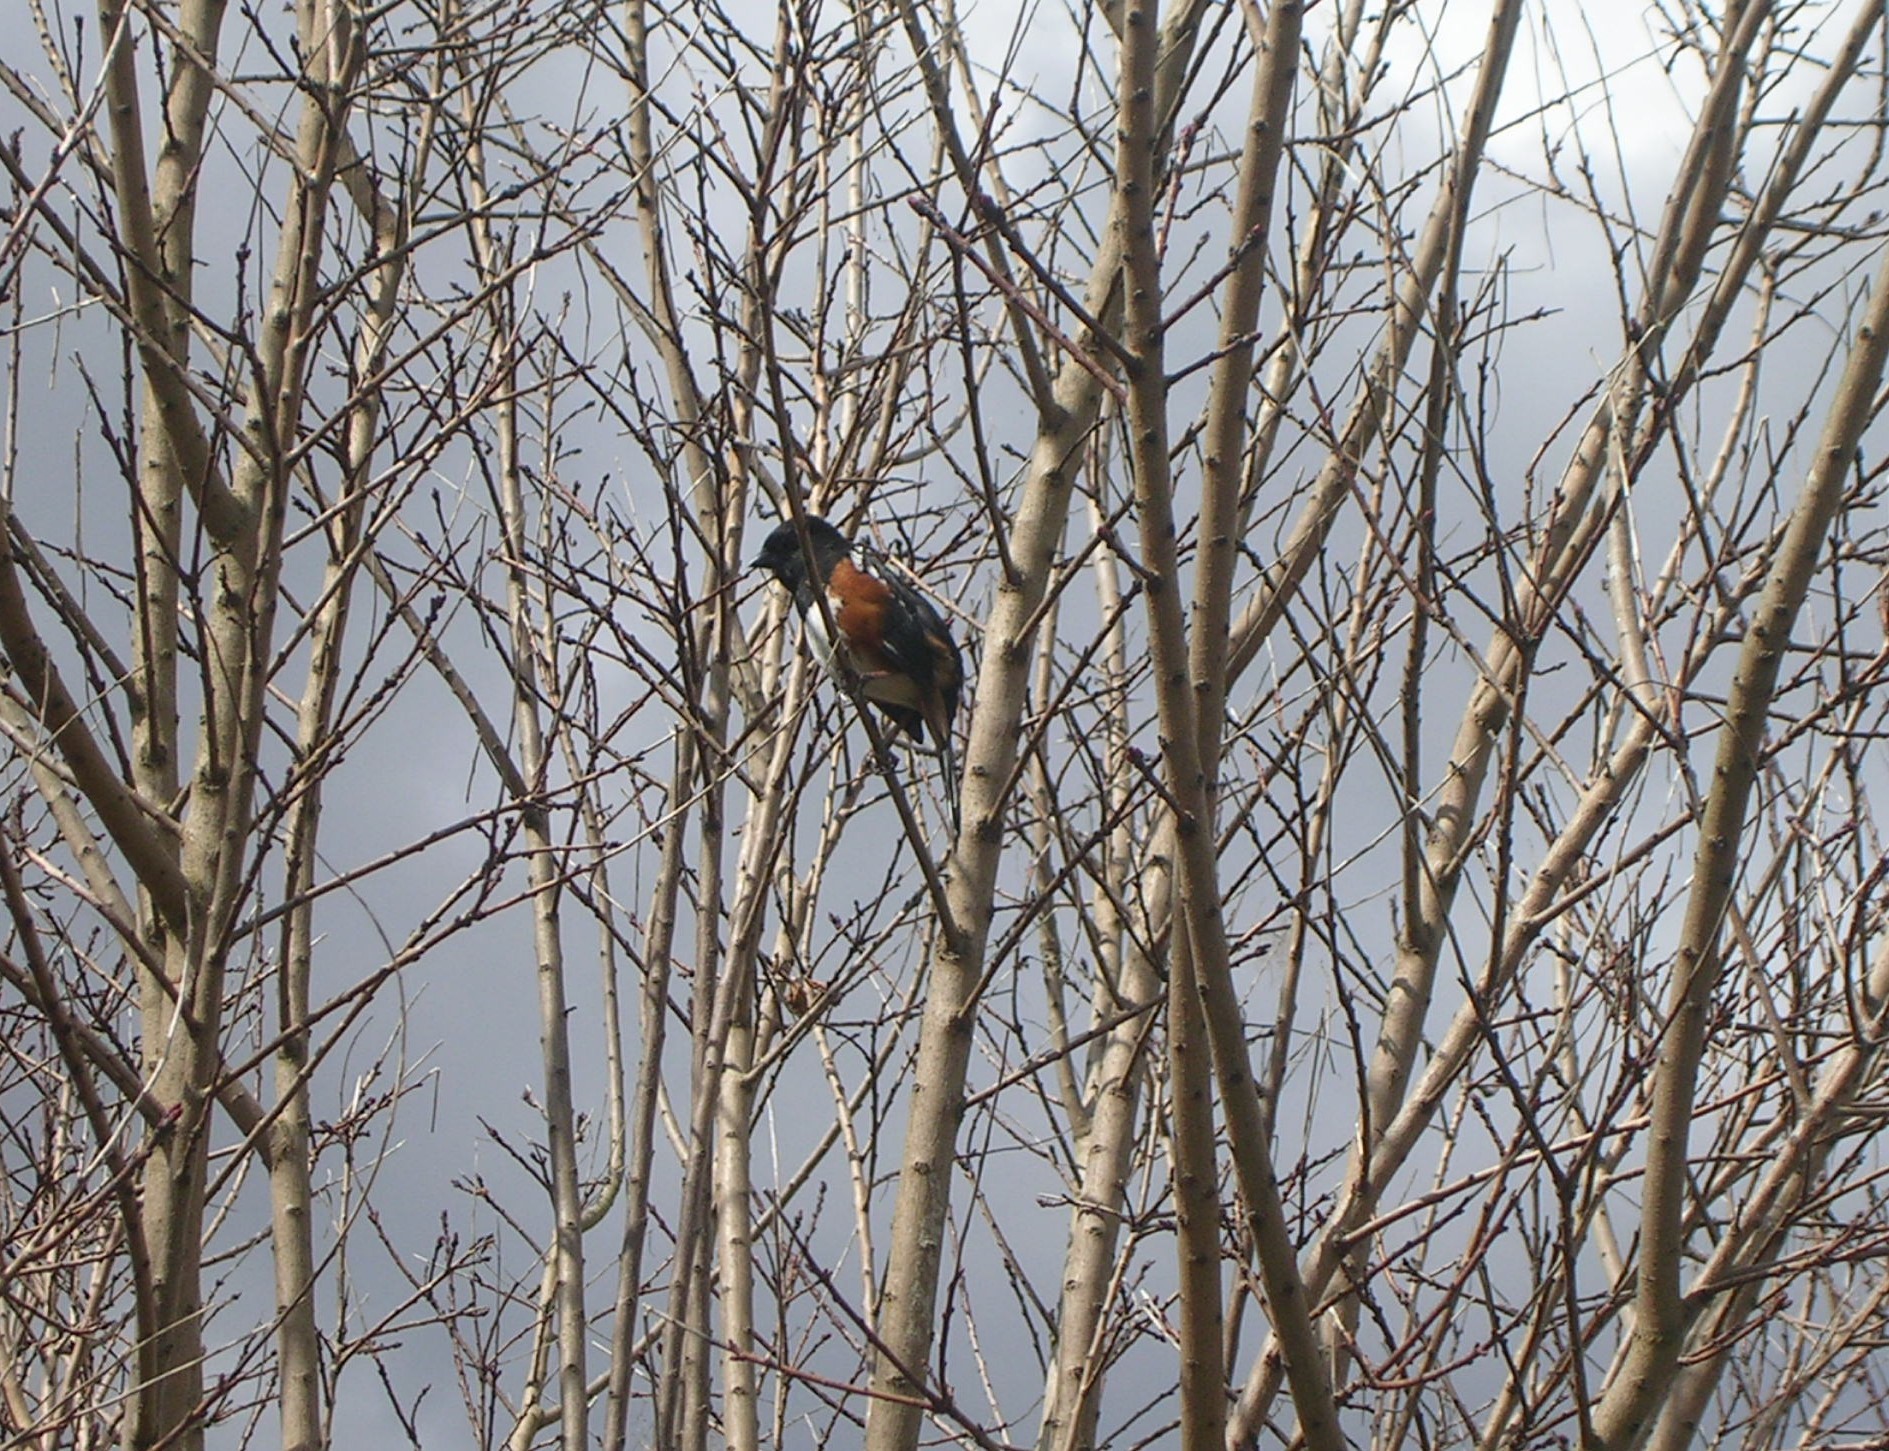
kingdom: Animalia
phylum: Chordata
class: Aves
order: Passeriformes
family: Passerellidae
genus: Pipilo
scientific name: Pipilo maculatus
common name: Spotted towhee
